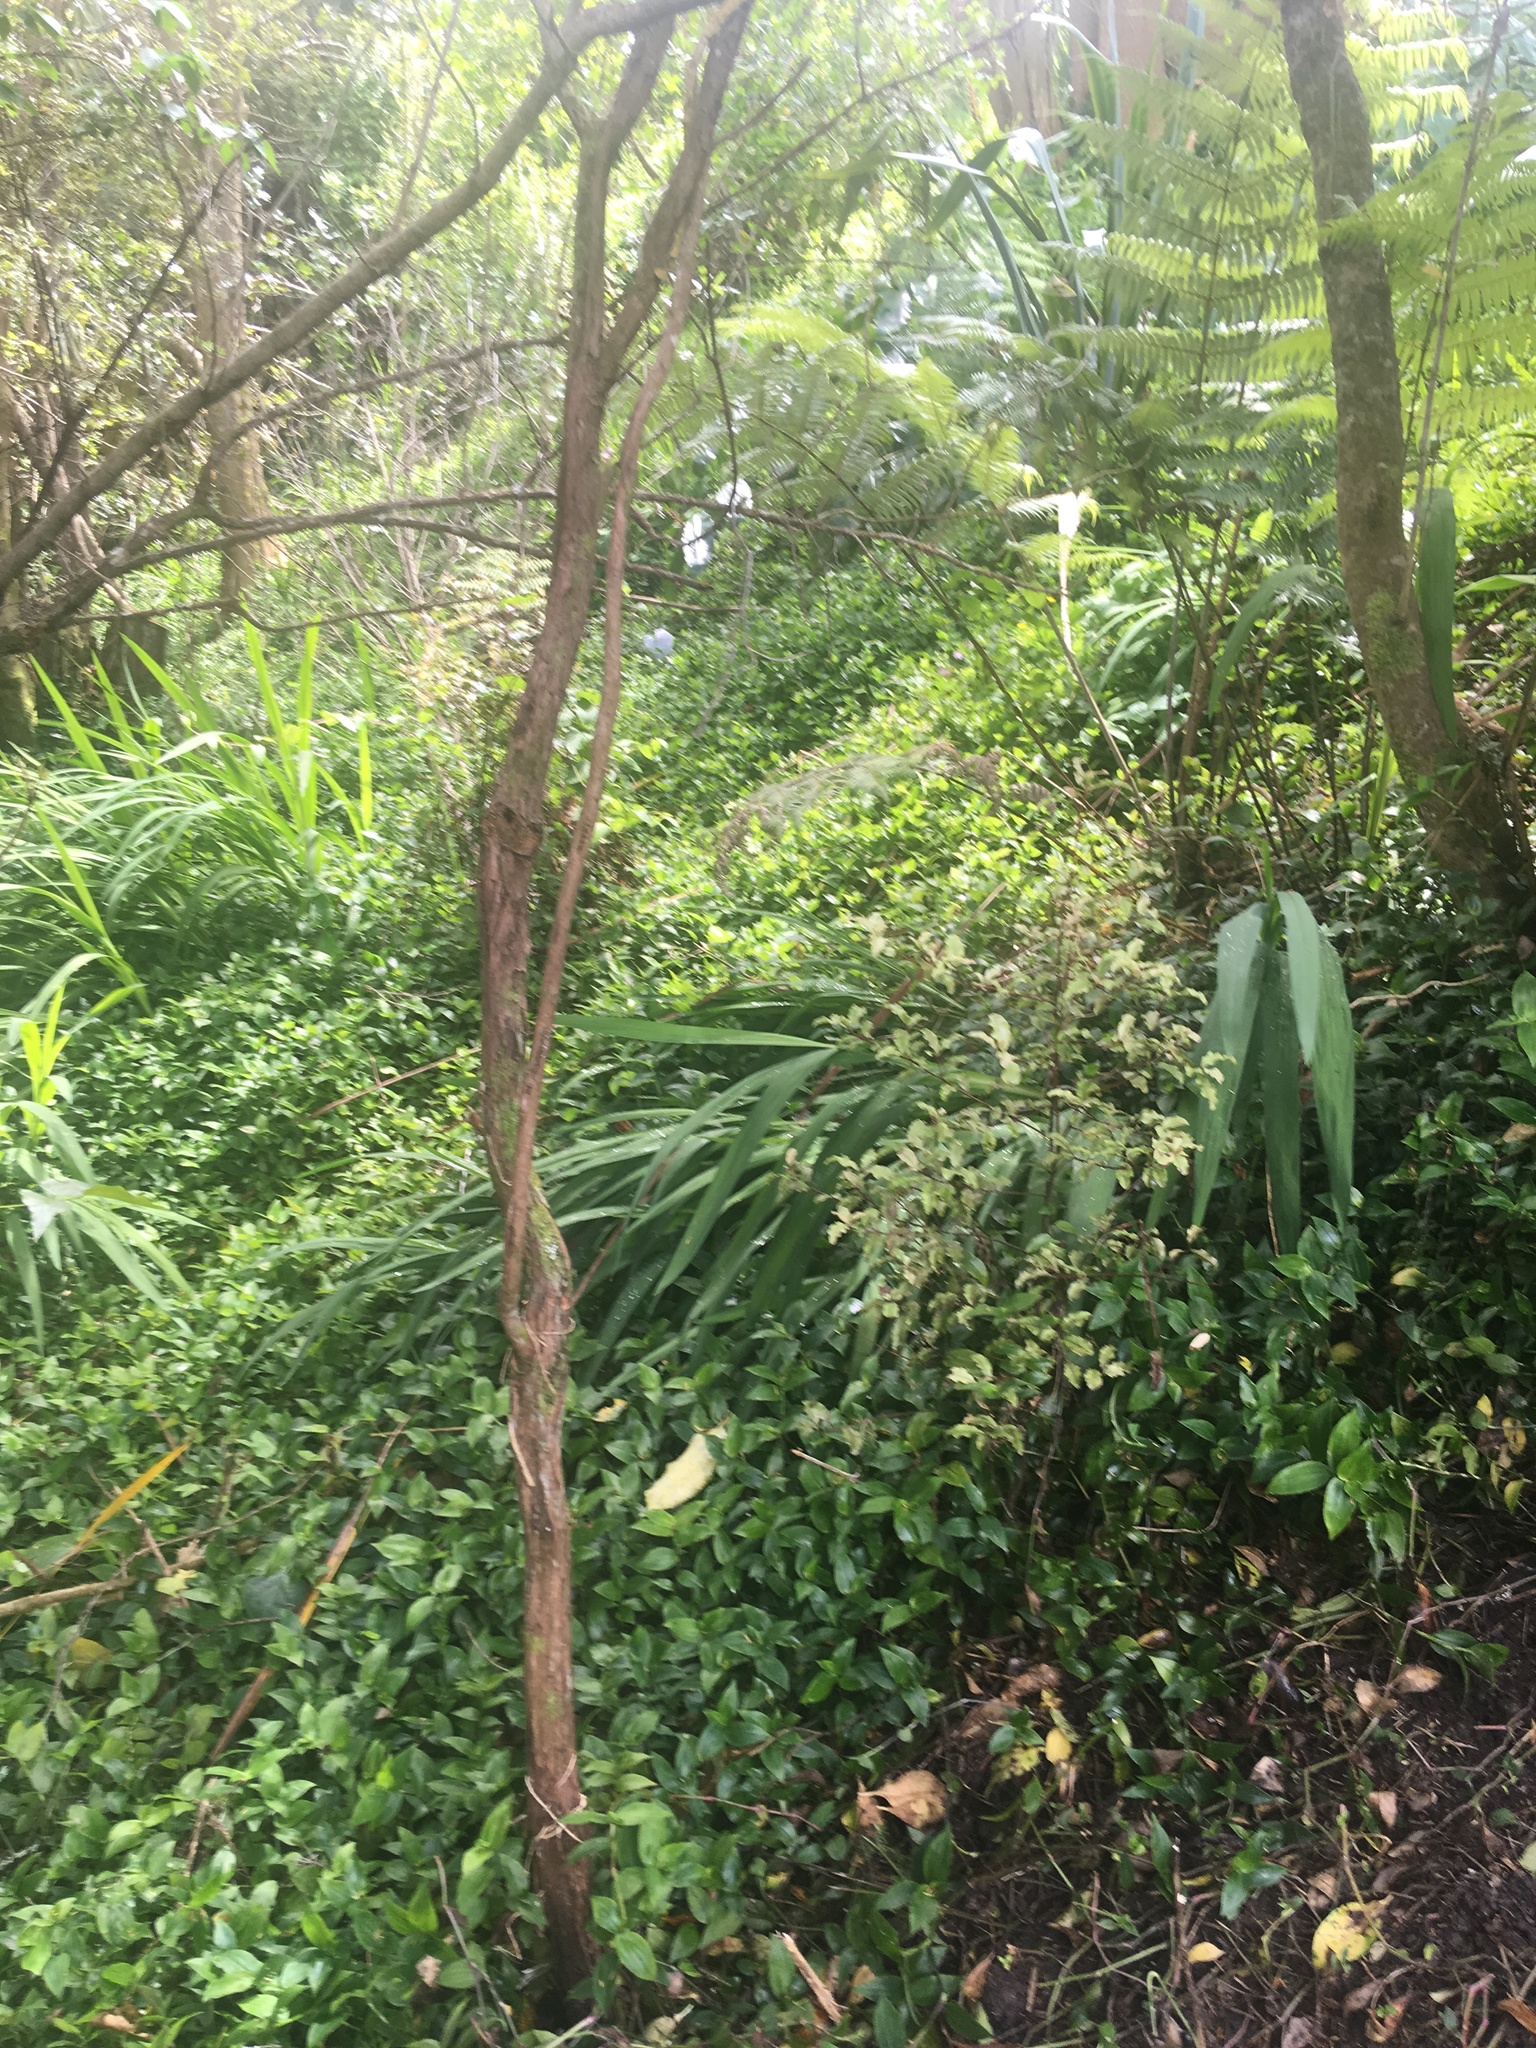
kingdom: Plantae
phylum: Tracheophyta
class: Liliopsida
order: Commelinales
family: Commelinaceae
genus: Tradescantia
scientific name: Tradescantia fluminensis
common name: Wandering-jew
